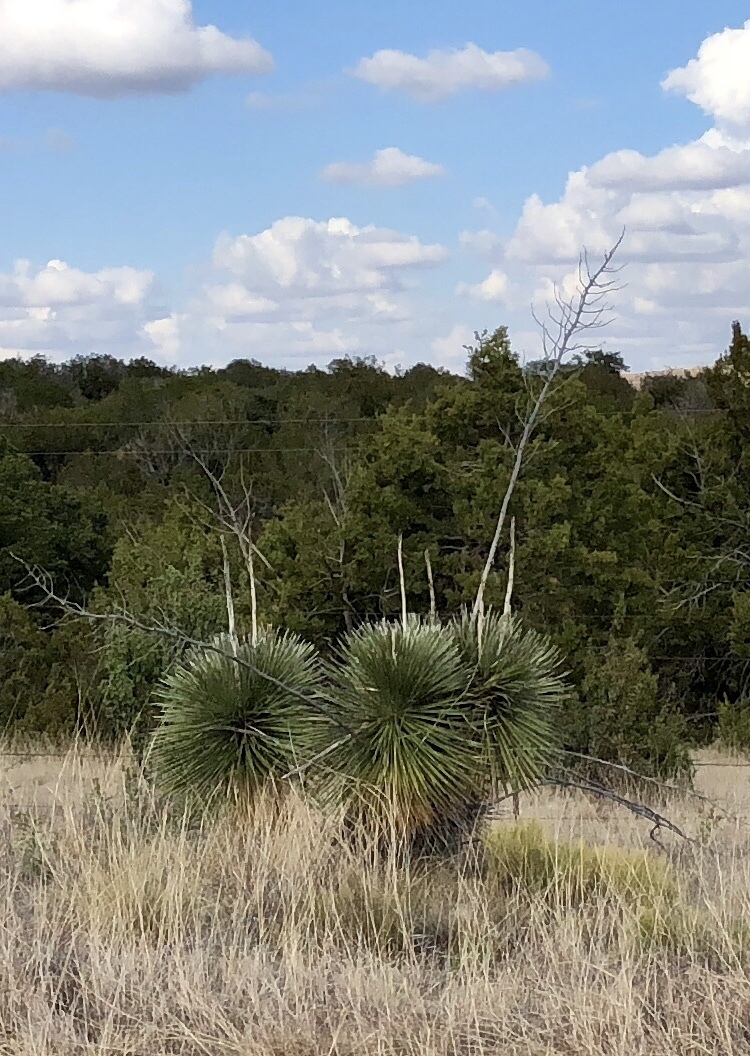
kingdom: Plantae
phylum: Tracheophyta
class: Liliopsida
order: Asparagales
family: Asparagaceae
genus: Yucca
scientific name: Yucca elata
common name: Palmella
